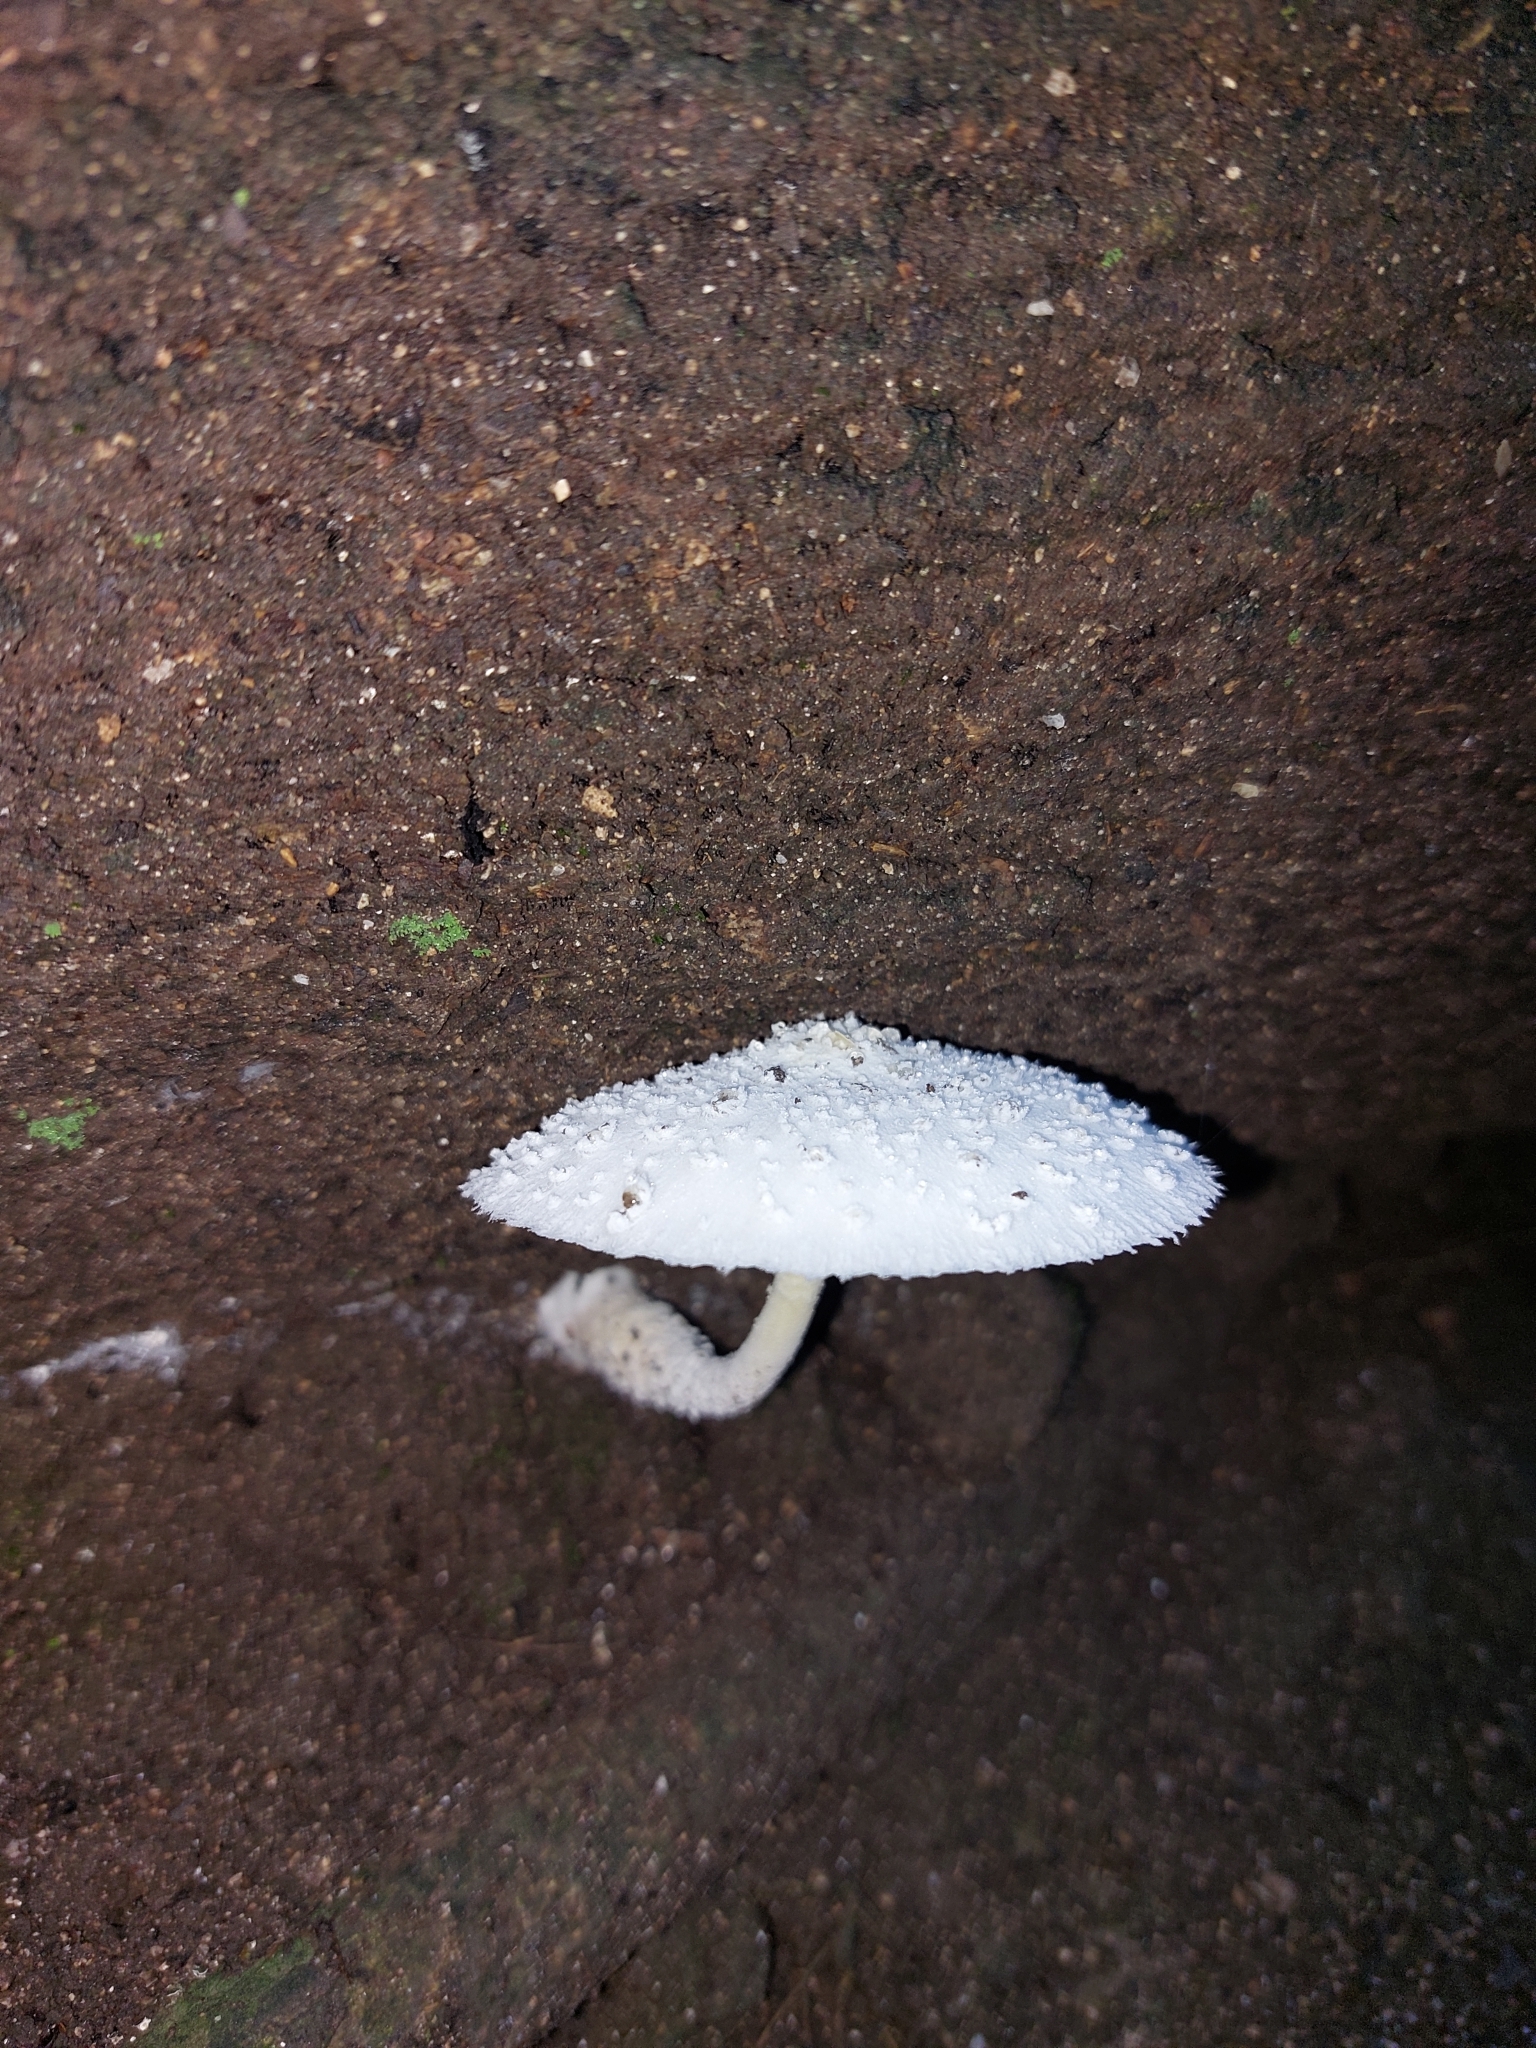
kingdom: Fungi
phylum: Basidiomycota
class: Agaricomycetes
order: Agaricales
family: Agaricaceae
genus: Leucocoprinus
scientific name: Leucocoprinus cretaceus
